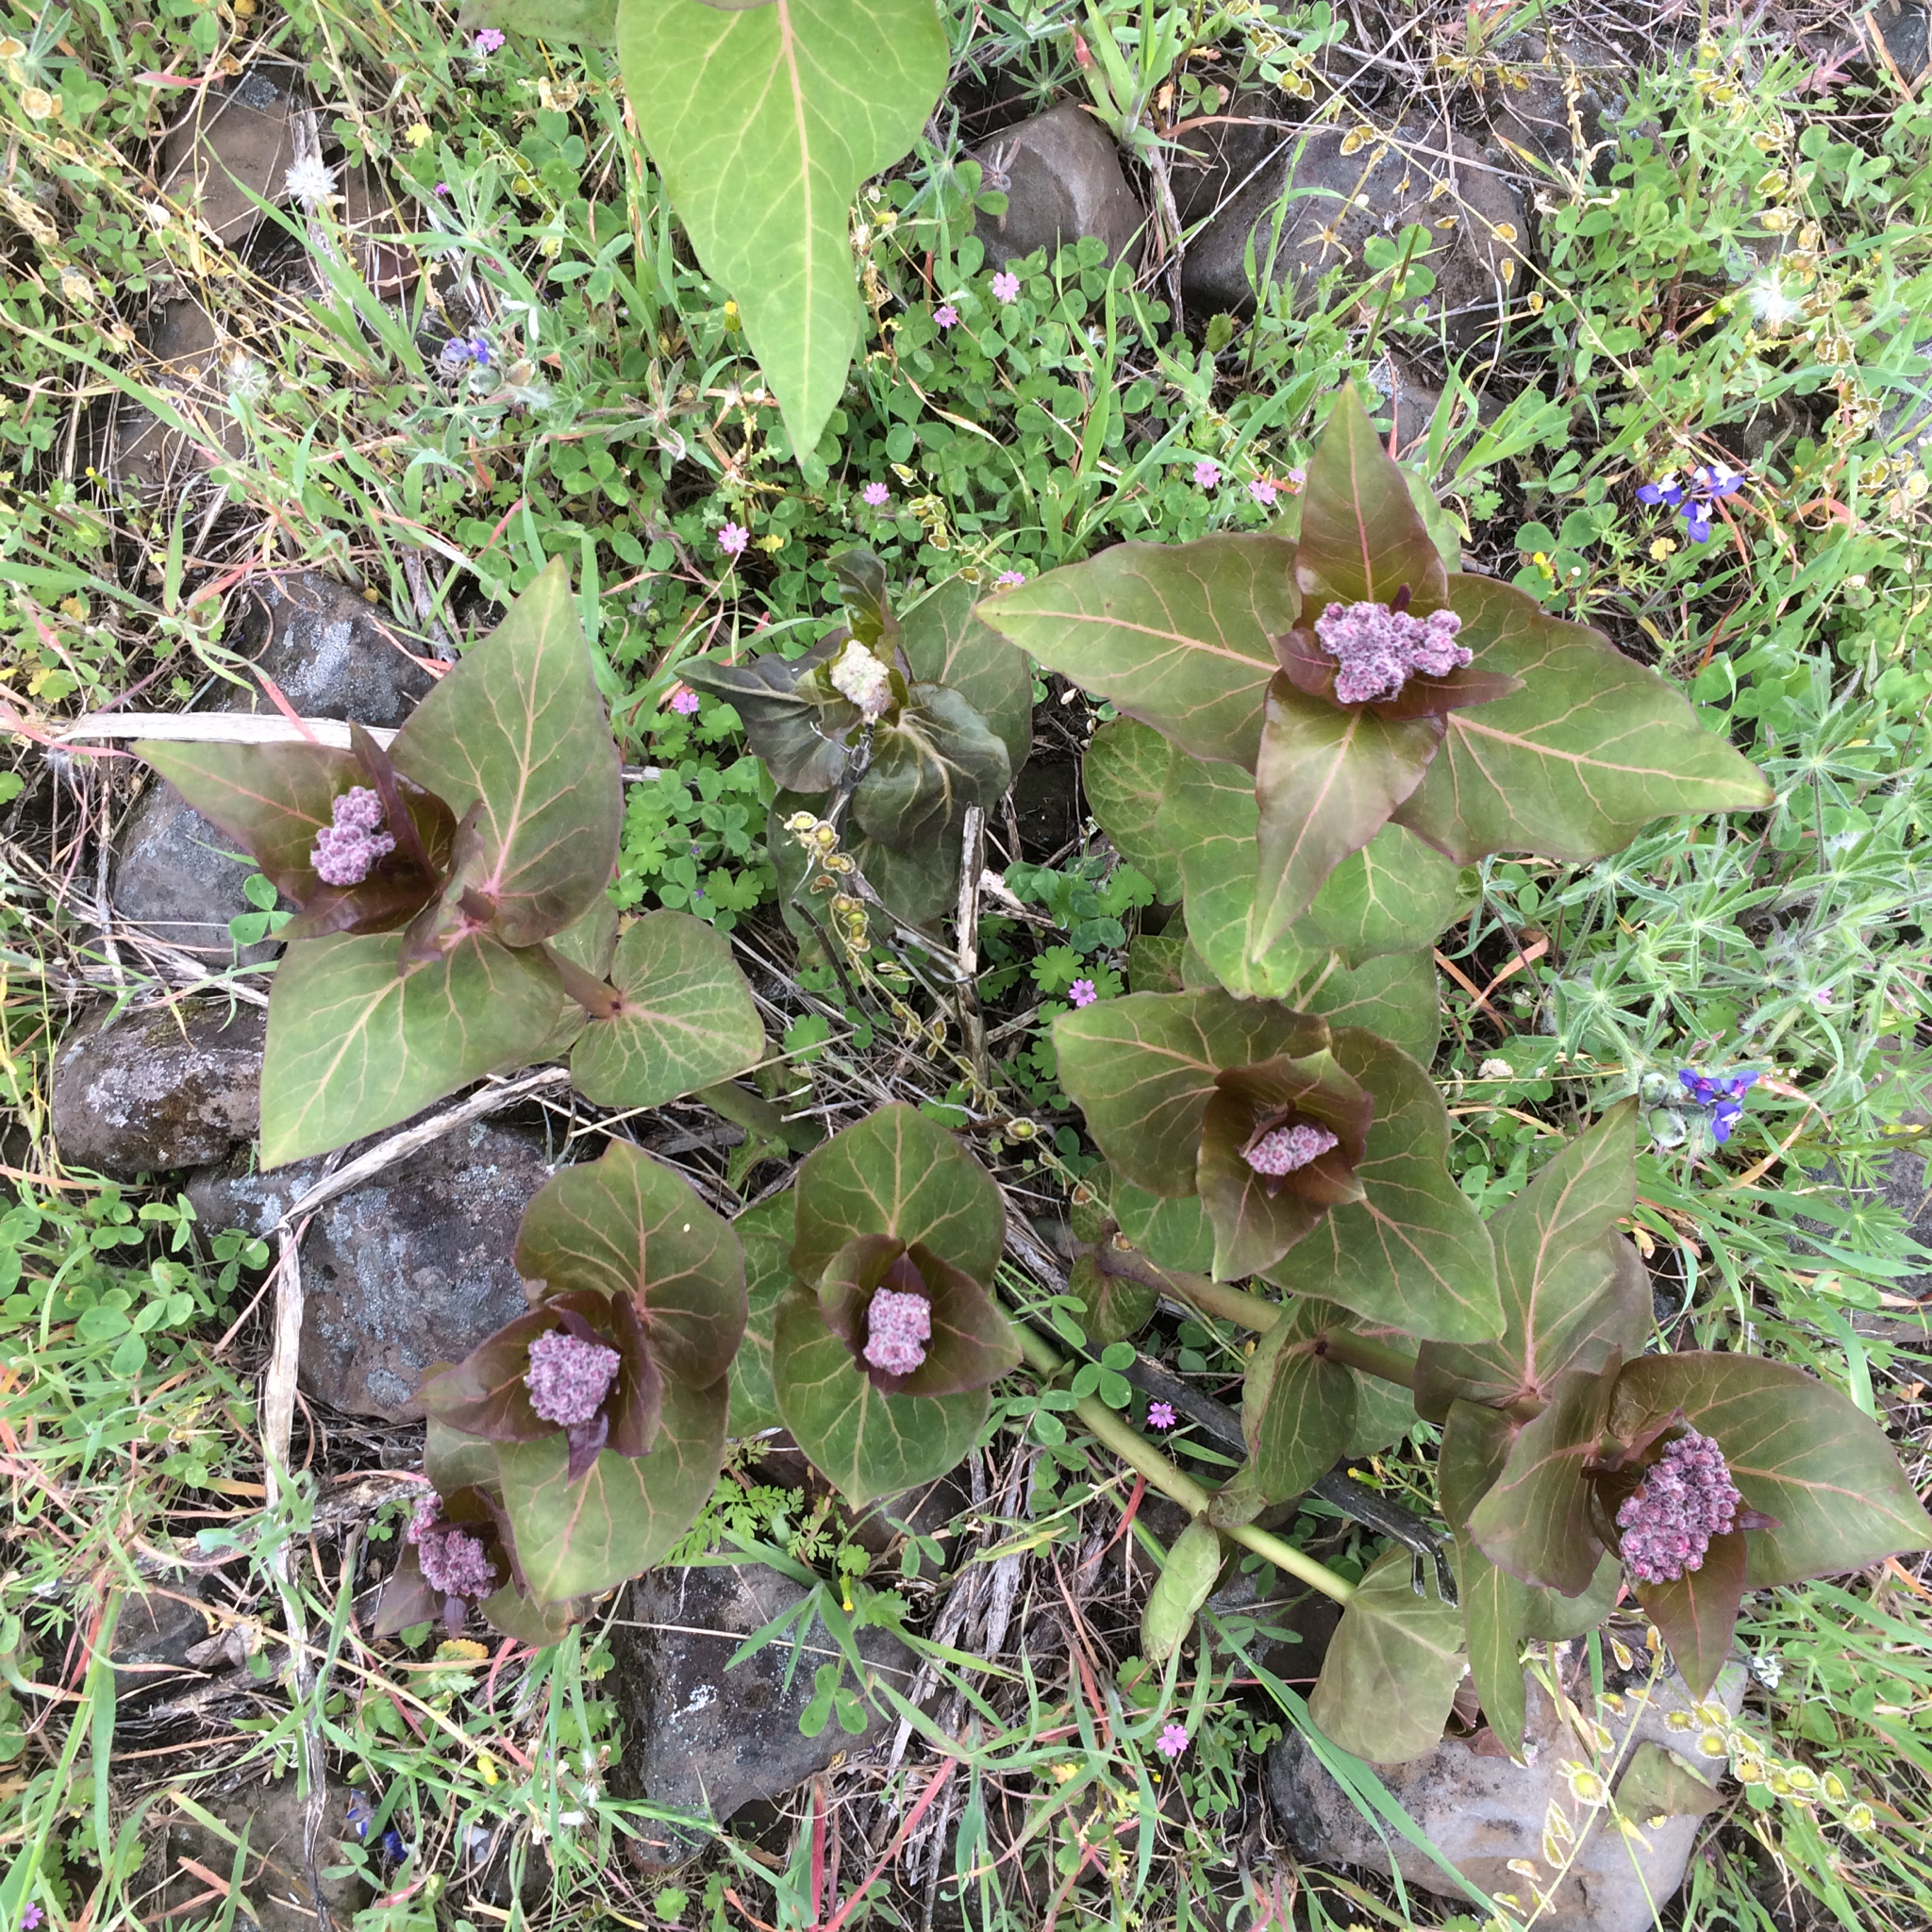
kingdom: Plantae
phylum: Tracheophyta
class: Magnoliopsida
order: Gentianales
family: Apocynaceae
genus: Asclepias
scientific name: Asclepias cordifolia
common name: Purple milkweed
